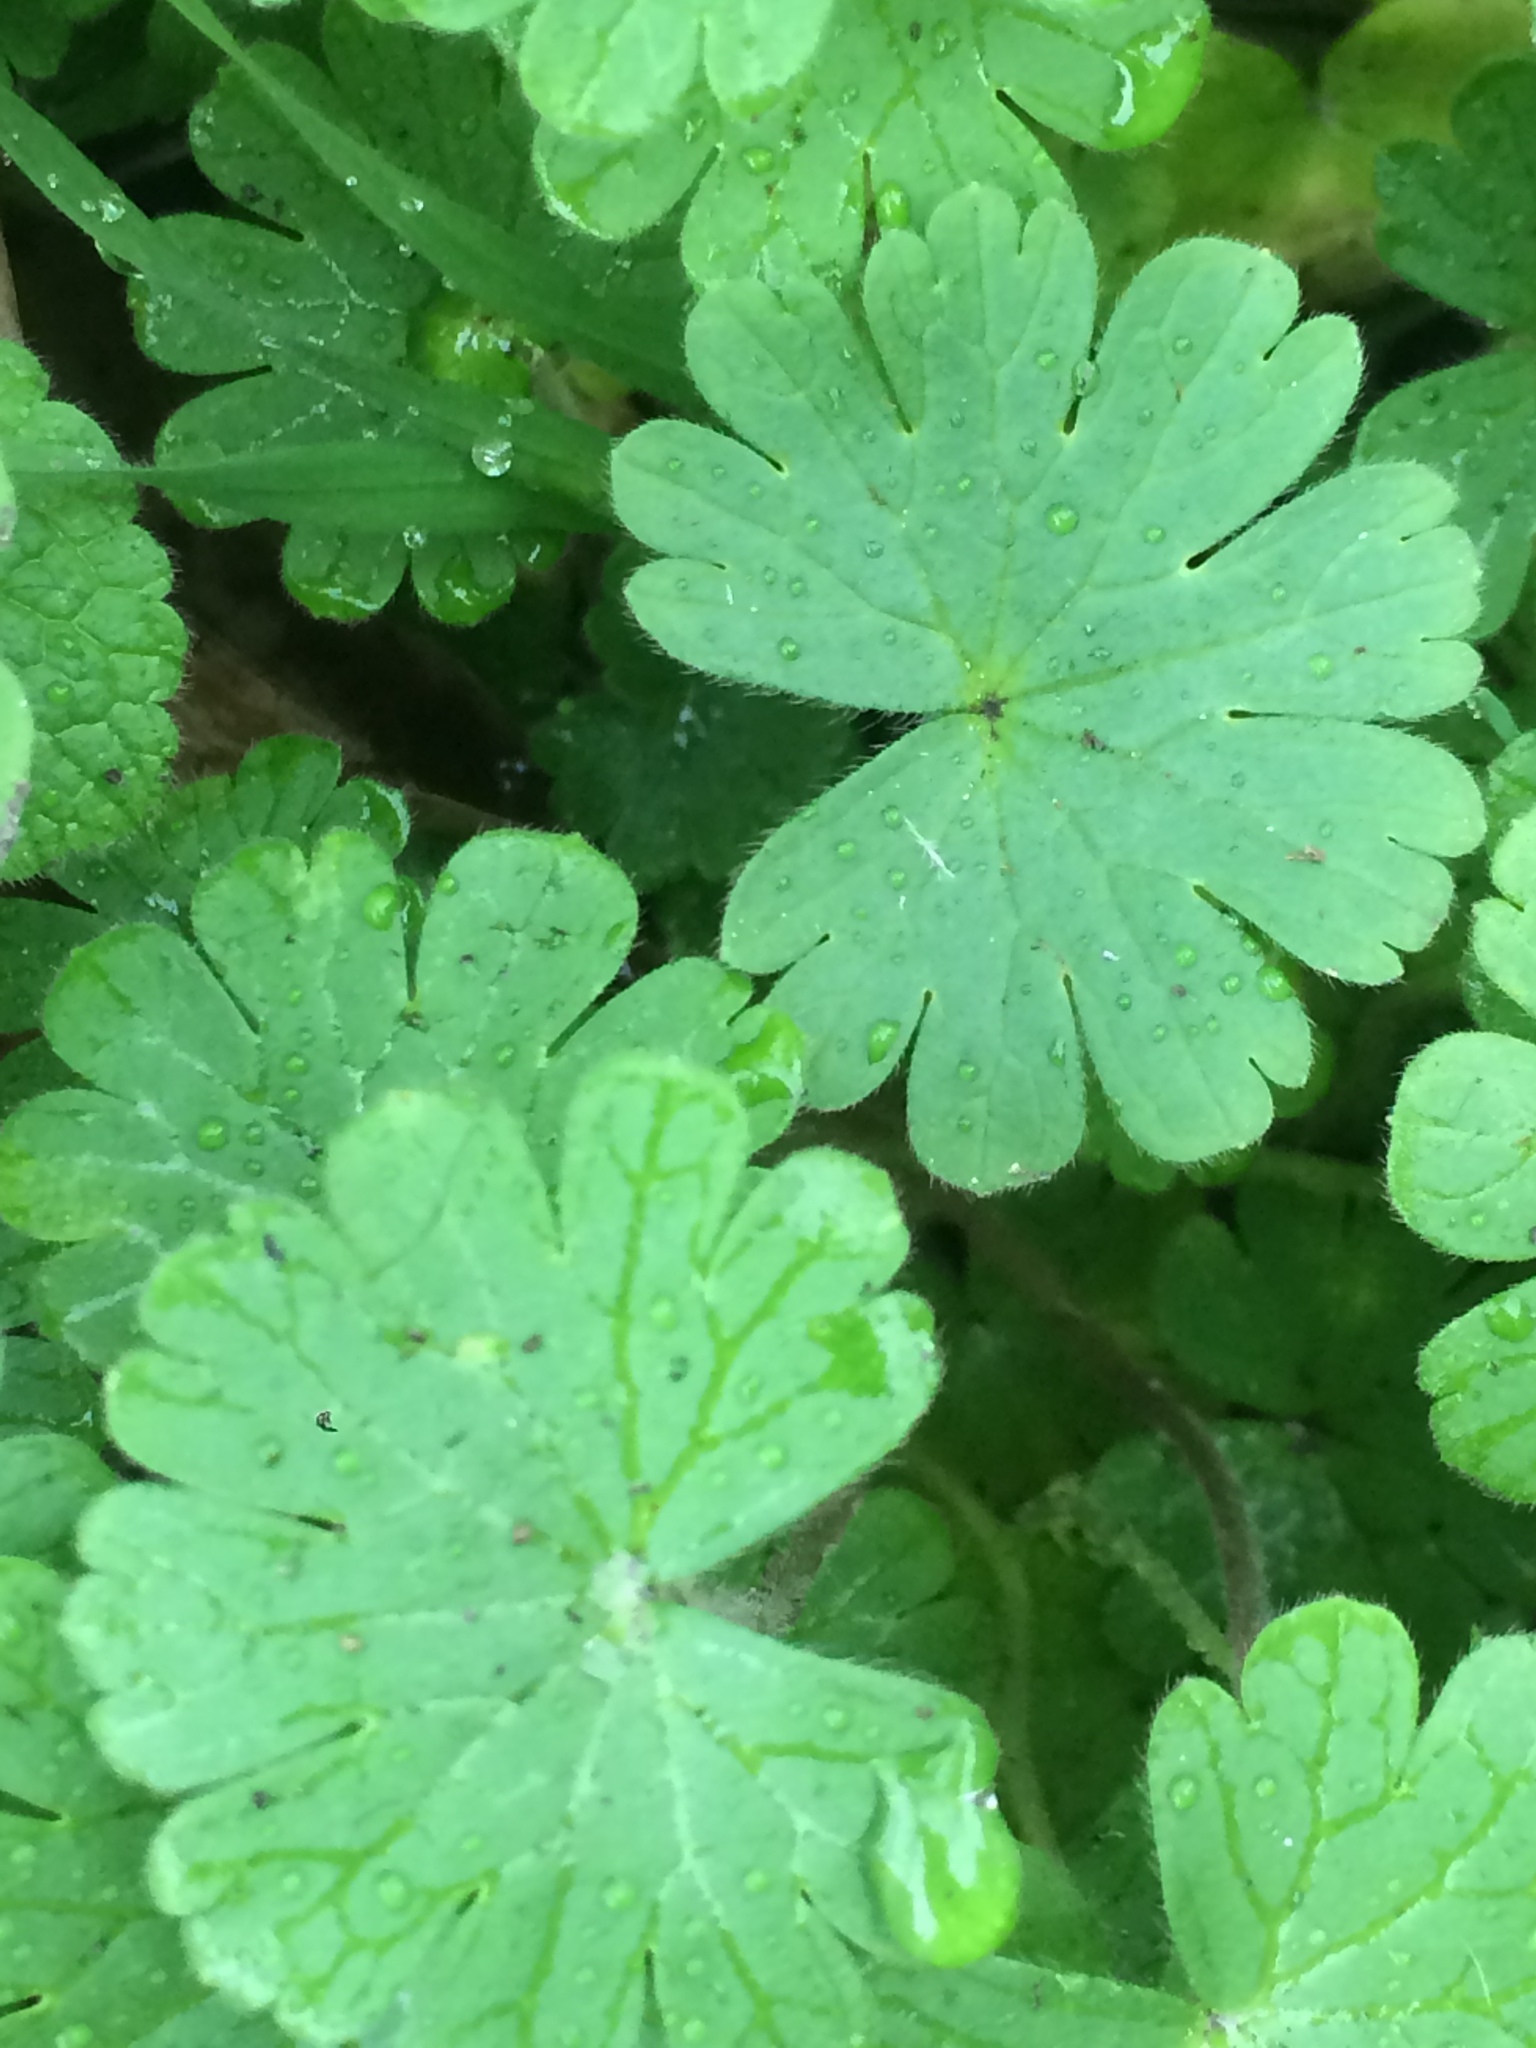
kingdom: Plantae
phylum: Tracheophyta
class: Magnoliopsida
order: Geraniales
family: Geraniaceae
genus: Geranium
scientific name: Geranium molle
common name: Dove's-foot crane's-bill
